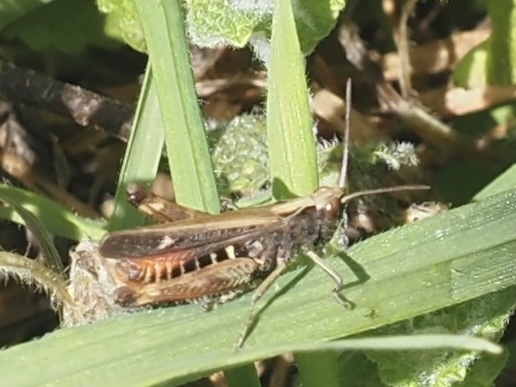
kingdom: Animalia
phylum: Arthropoda
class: Insecta
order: Orthoptera
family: Acrididae
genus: Omocestus
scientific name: Omocestus rufipes
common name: Woodland grasshopper
